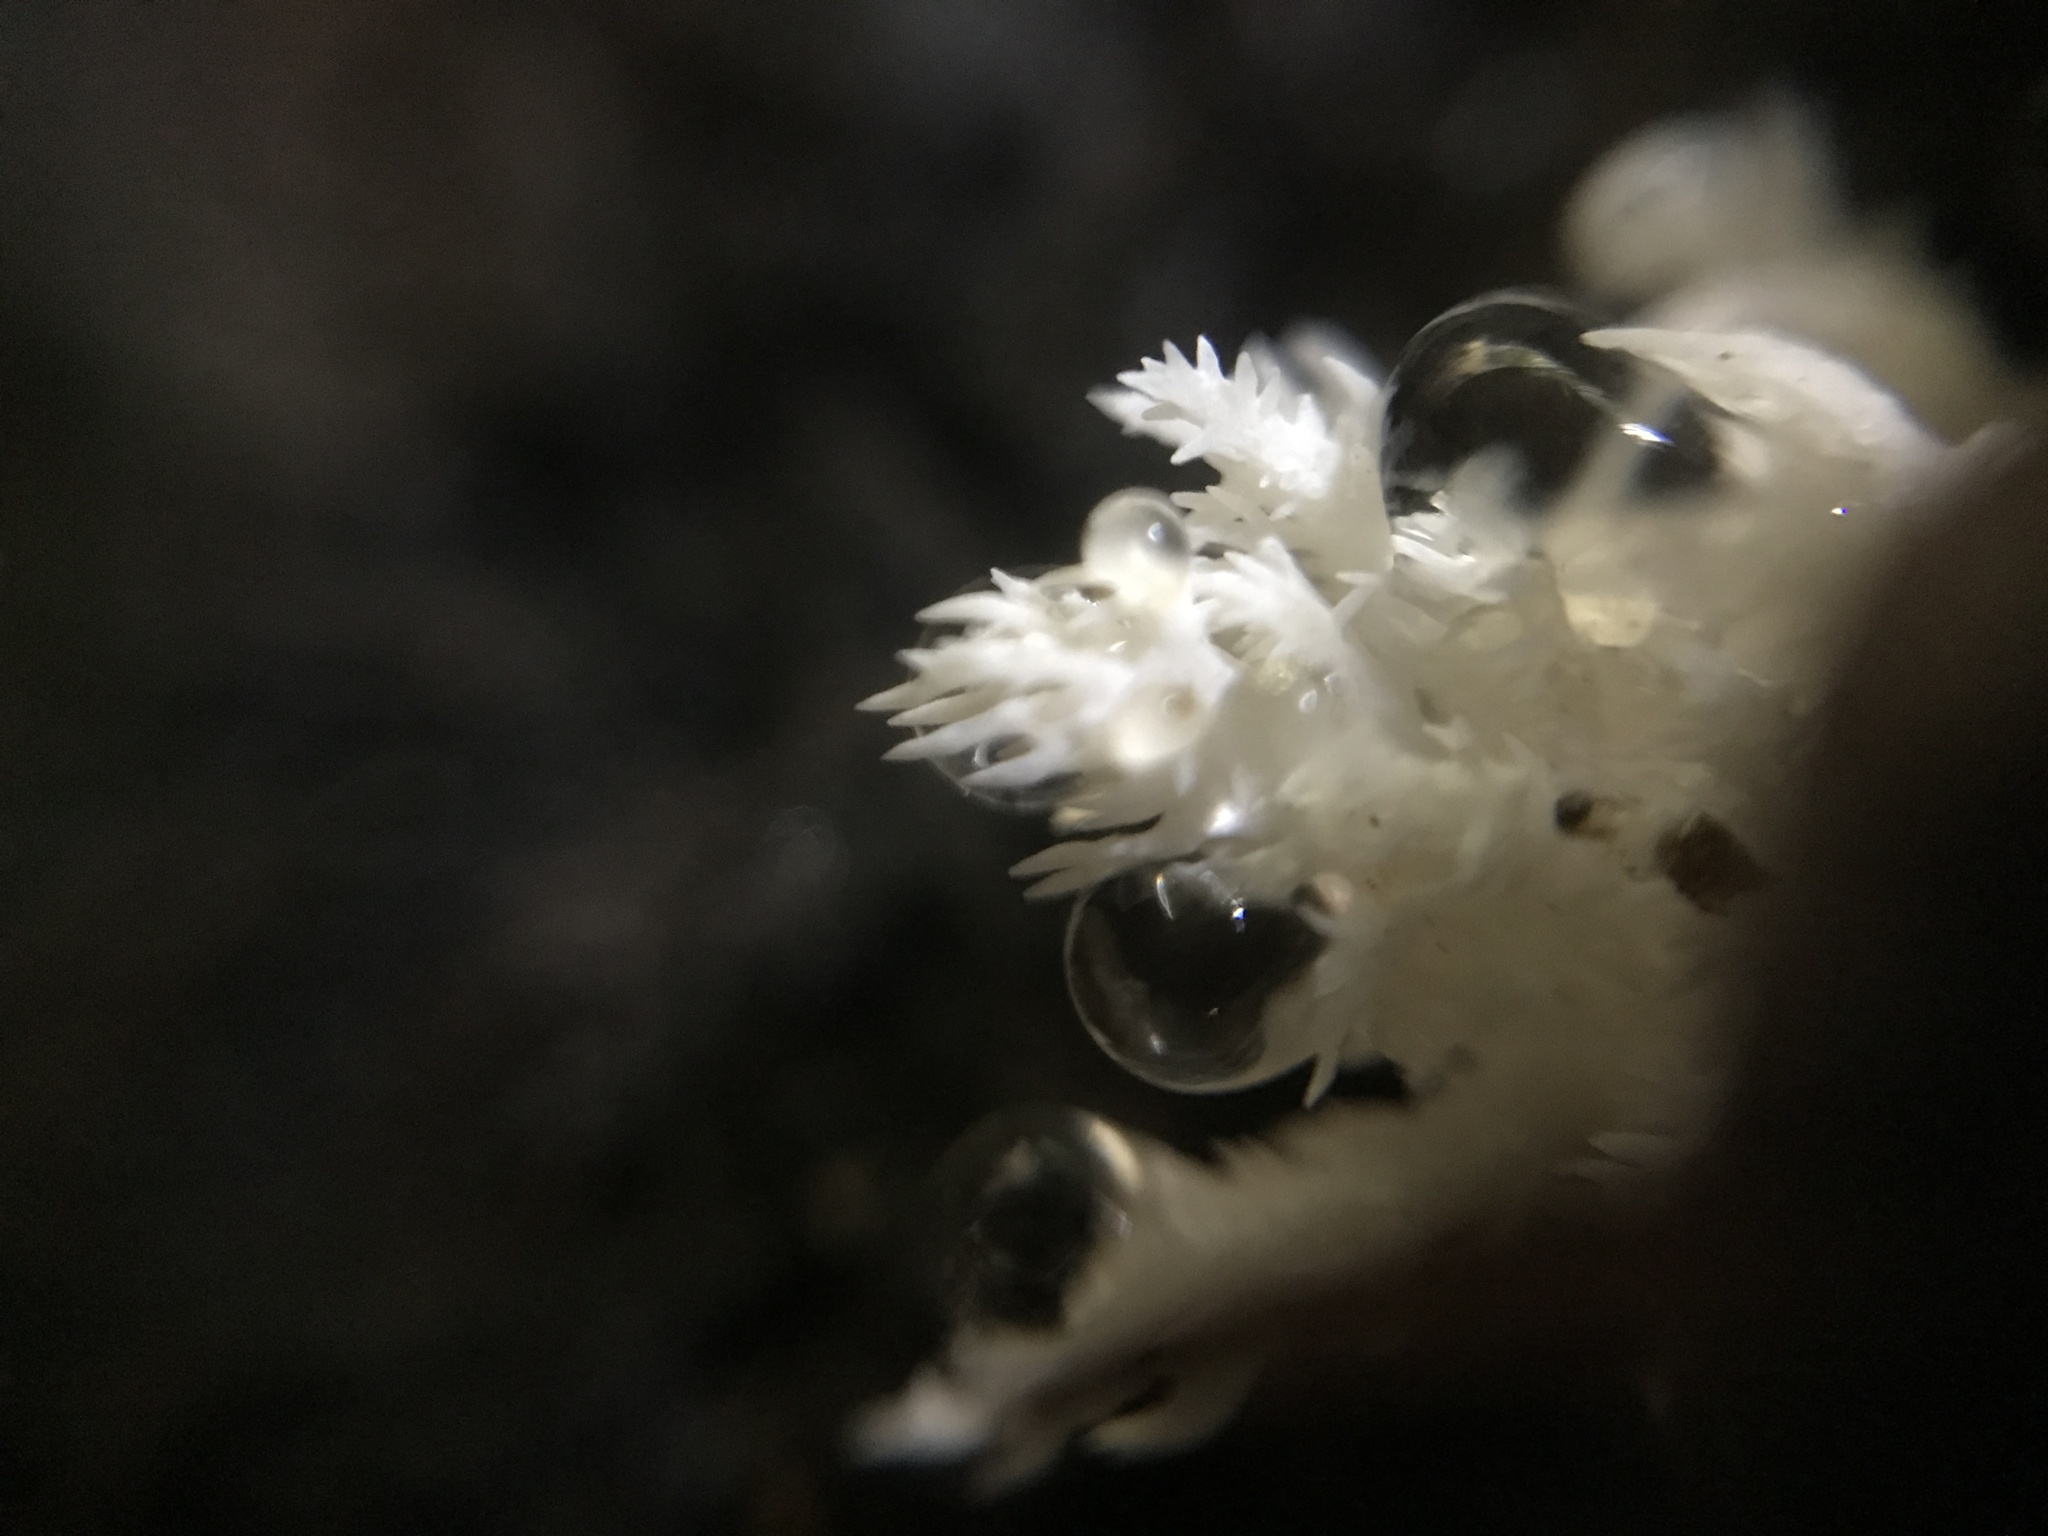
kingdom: Fungi
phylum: Basidiomycota
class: Agaricomycetes
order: Russulales
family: Hericiaceae
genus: Hericium
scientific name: Hericium coralloides
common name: Coral tooth
